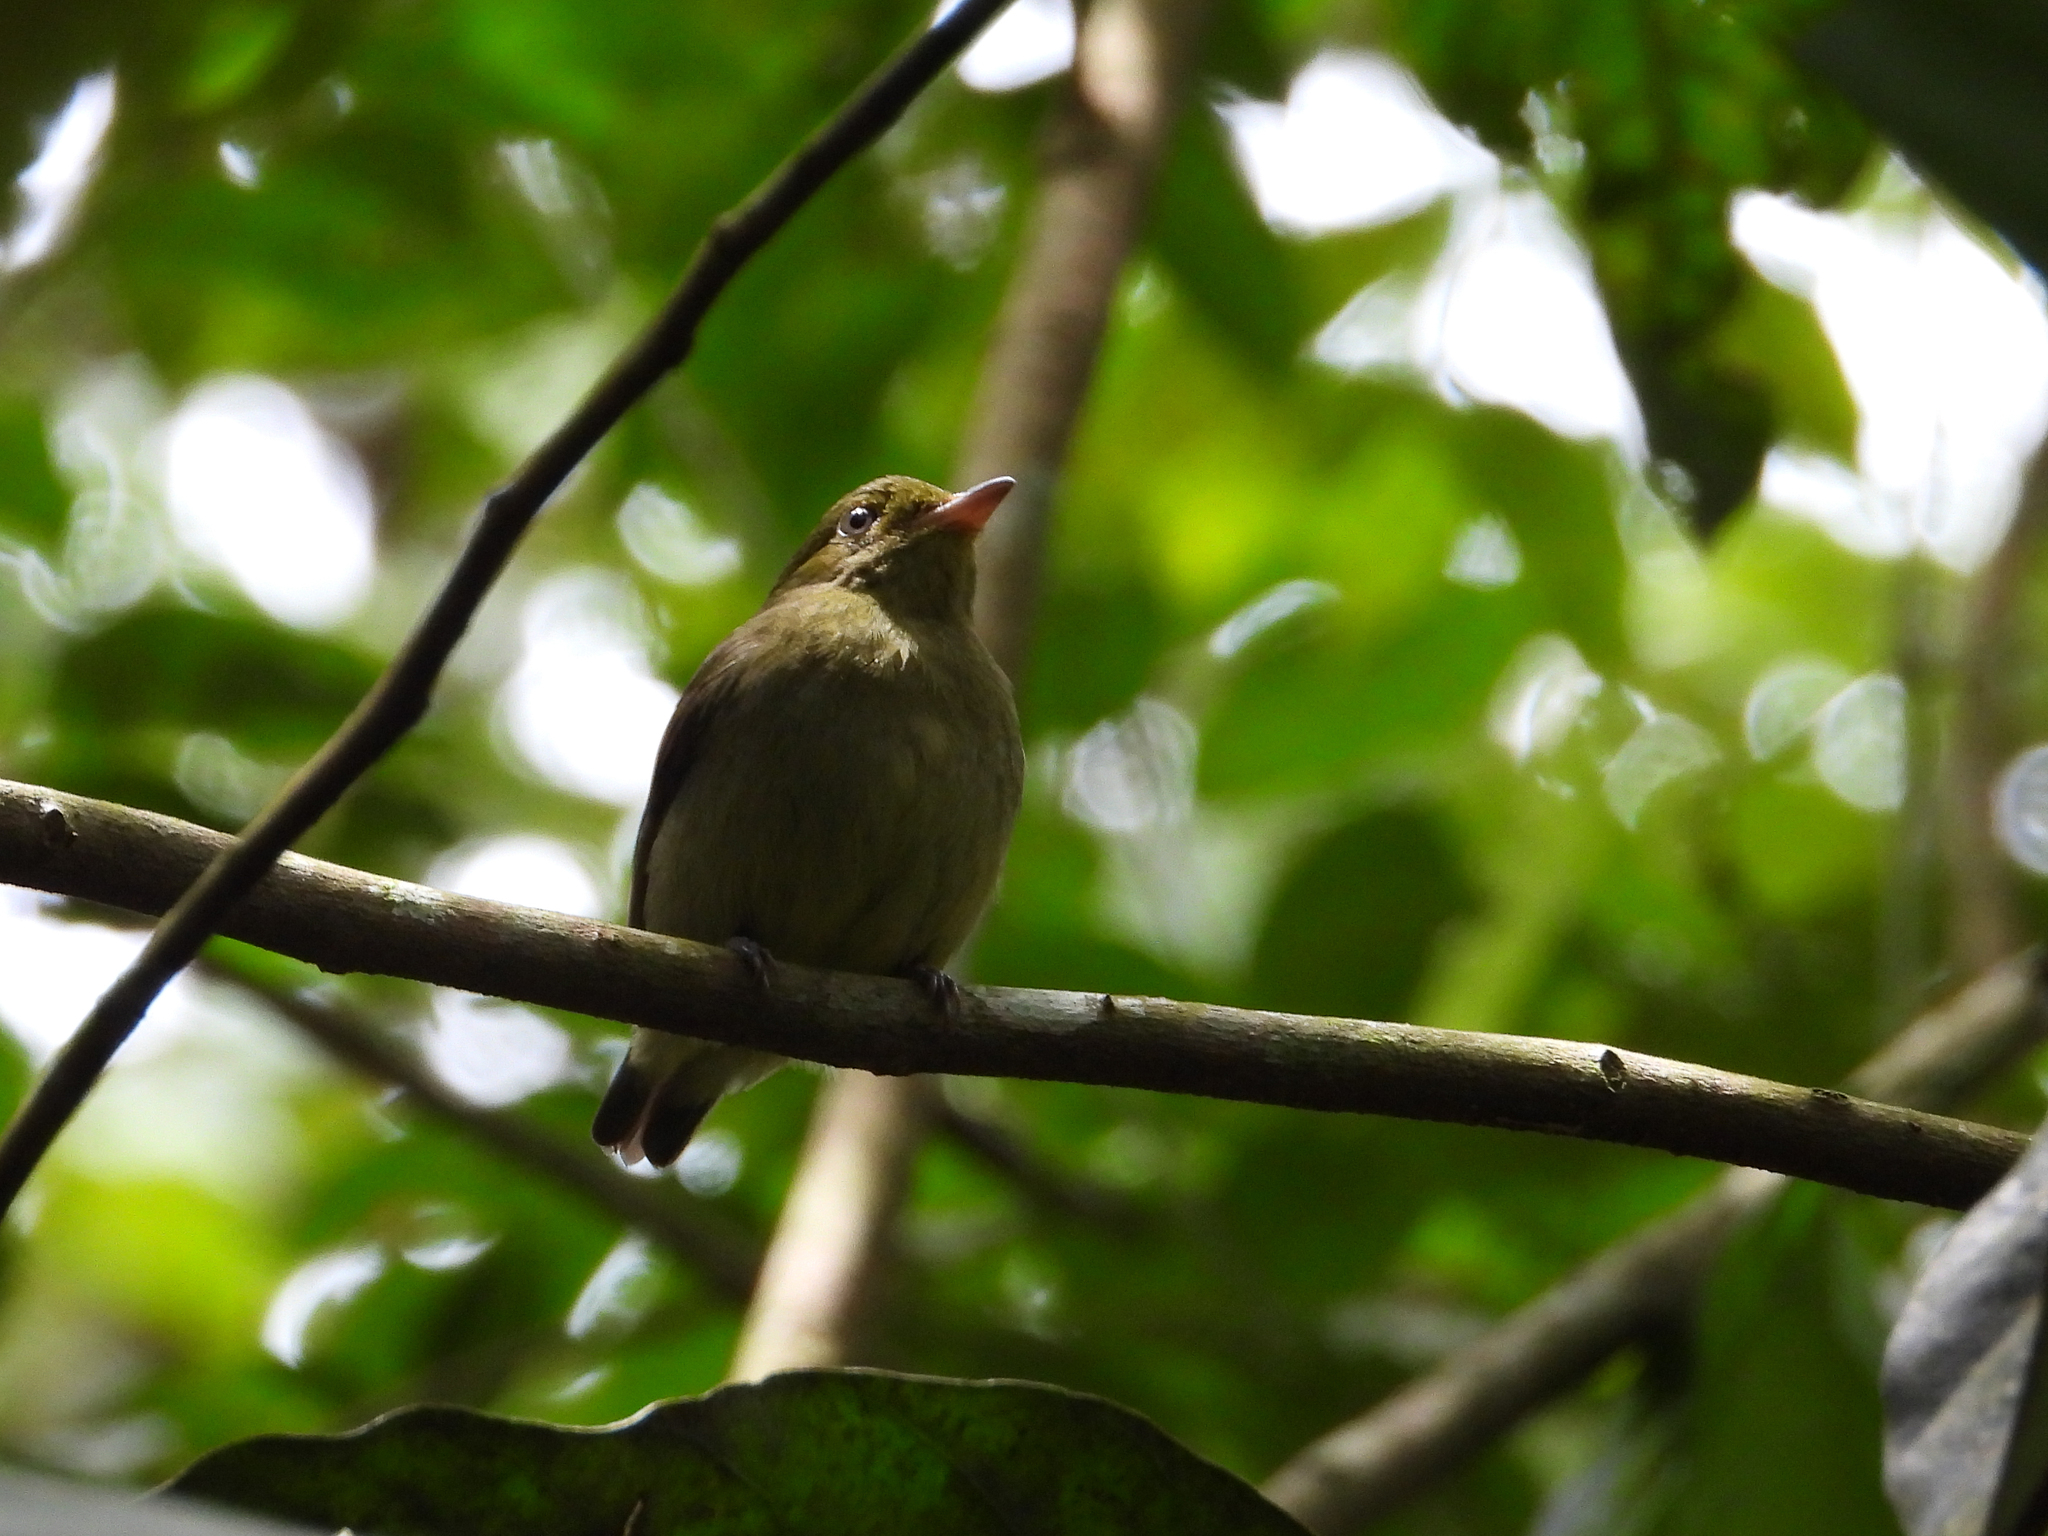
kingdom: Animalia
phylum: Chordata
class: Aves
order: Passeriformes
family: Pipridae
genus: Pipra
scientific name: Pipra mentalis
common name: Red-capped manakin
